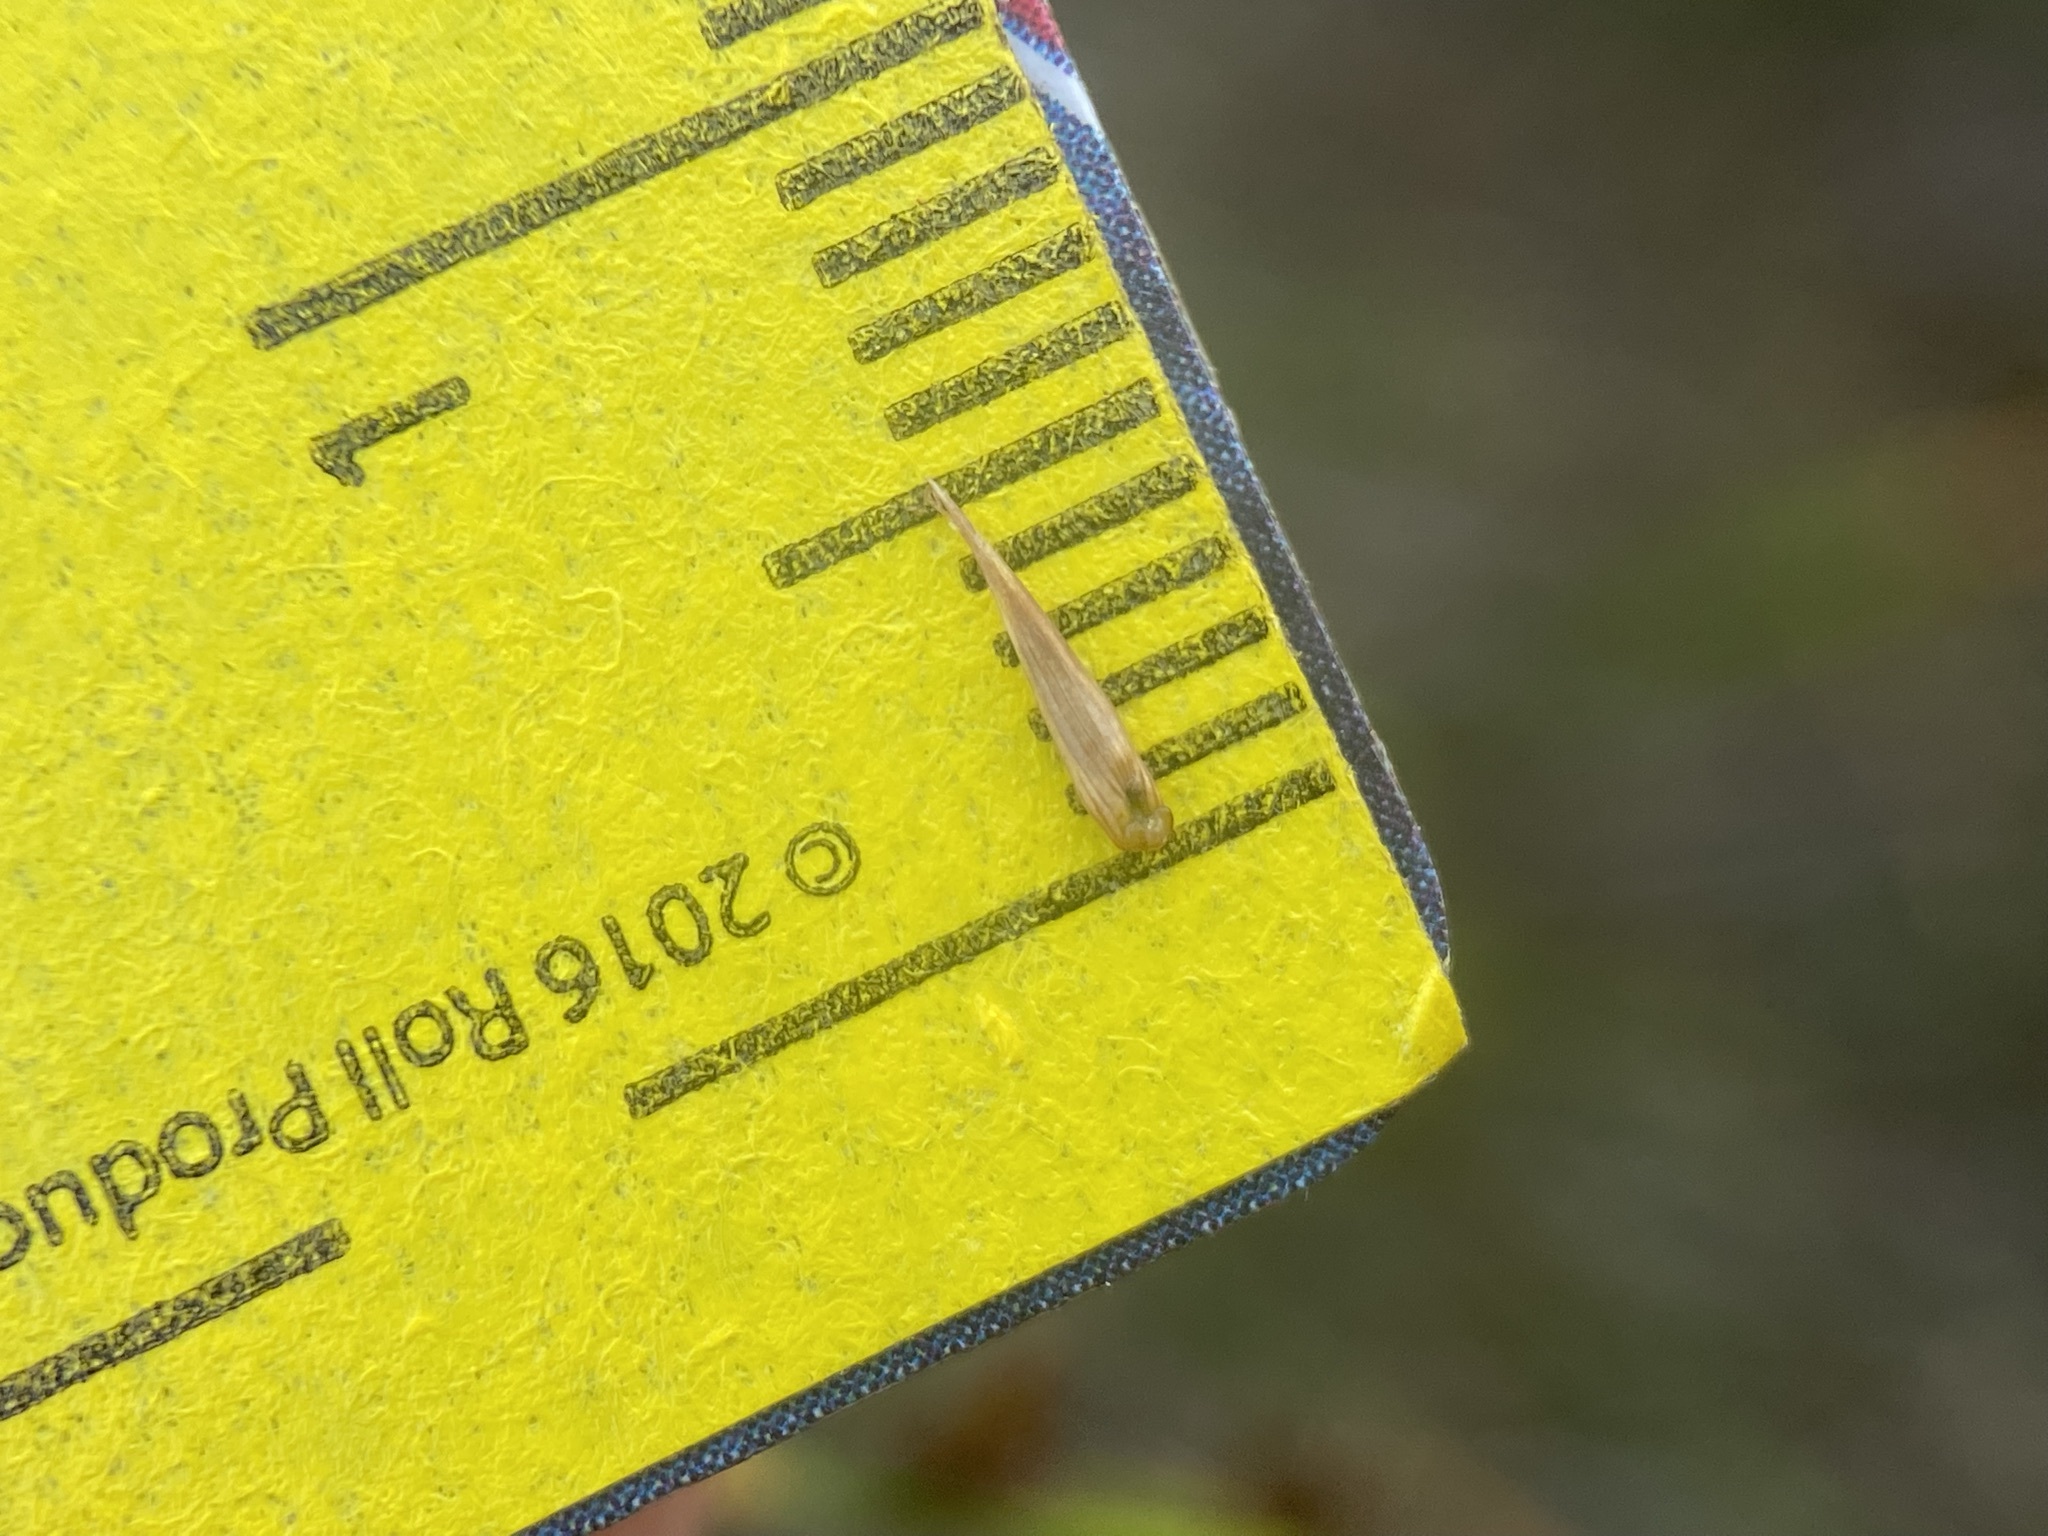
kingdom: Plantae
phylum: Tracheophyta
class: Liliopsida
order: Poales
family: Cyperaceae
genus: Carex
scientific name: Carex microglochin
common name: Bristle sedge
